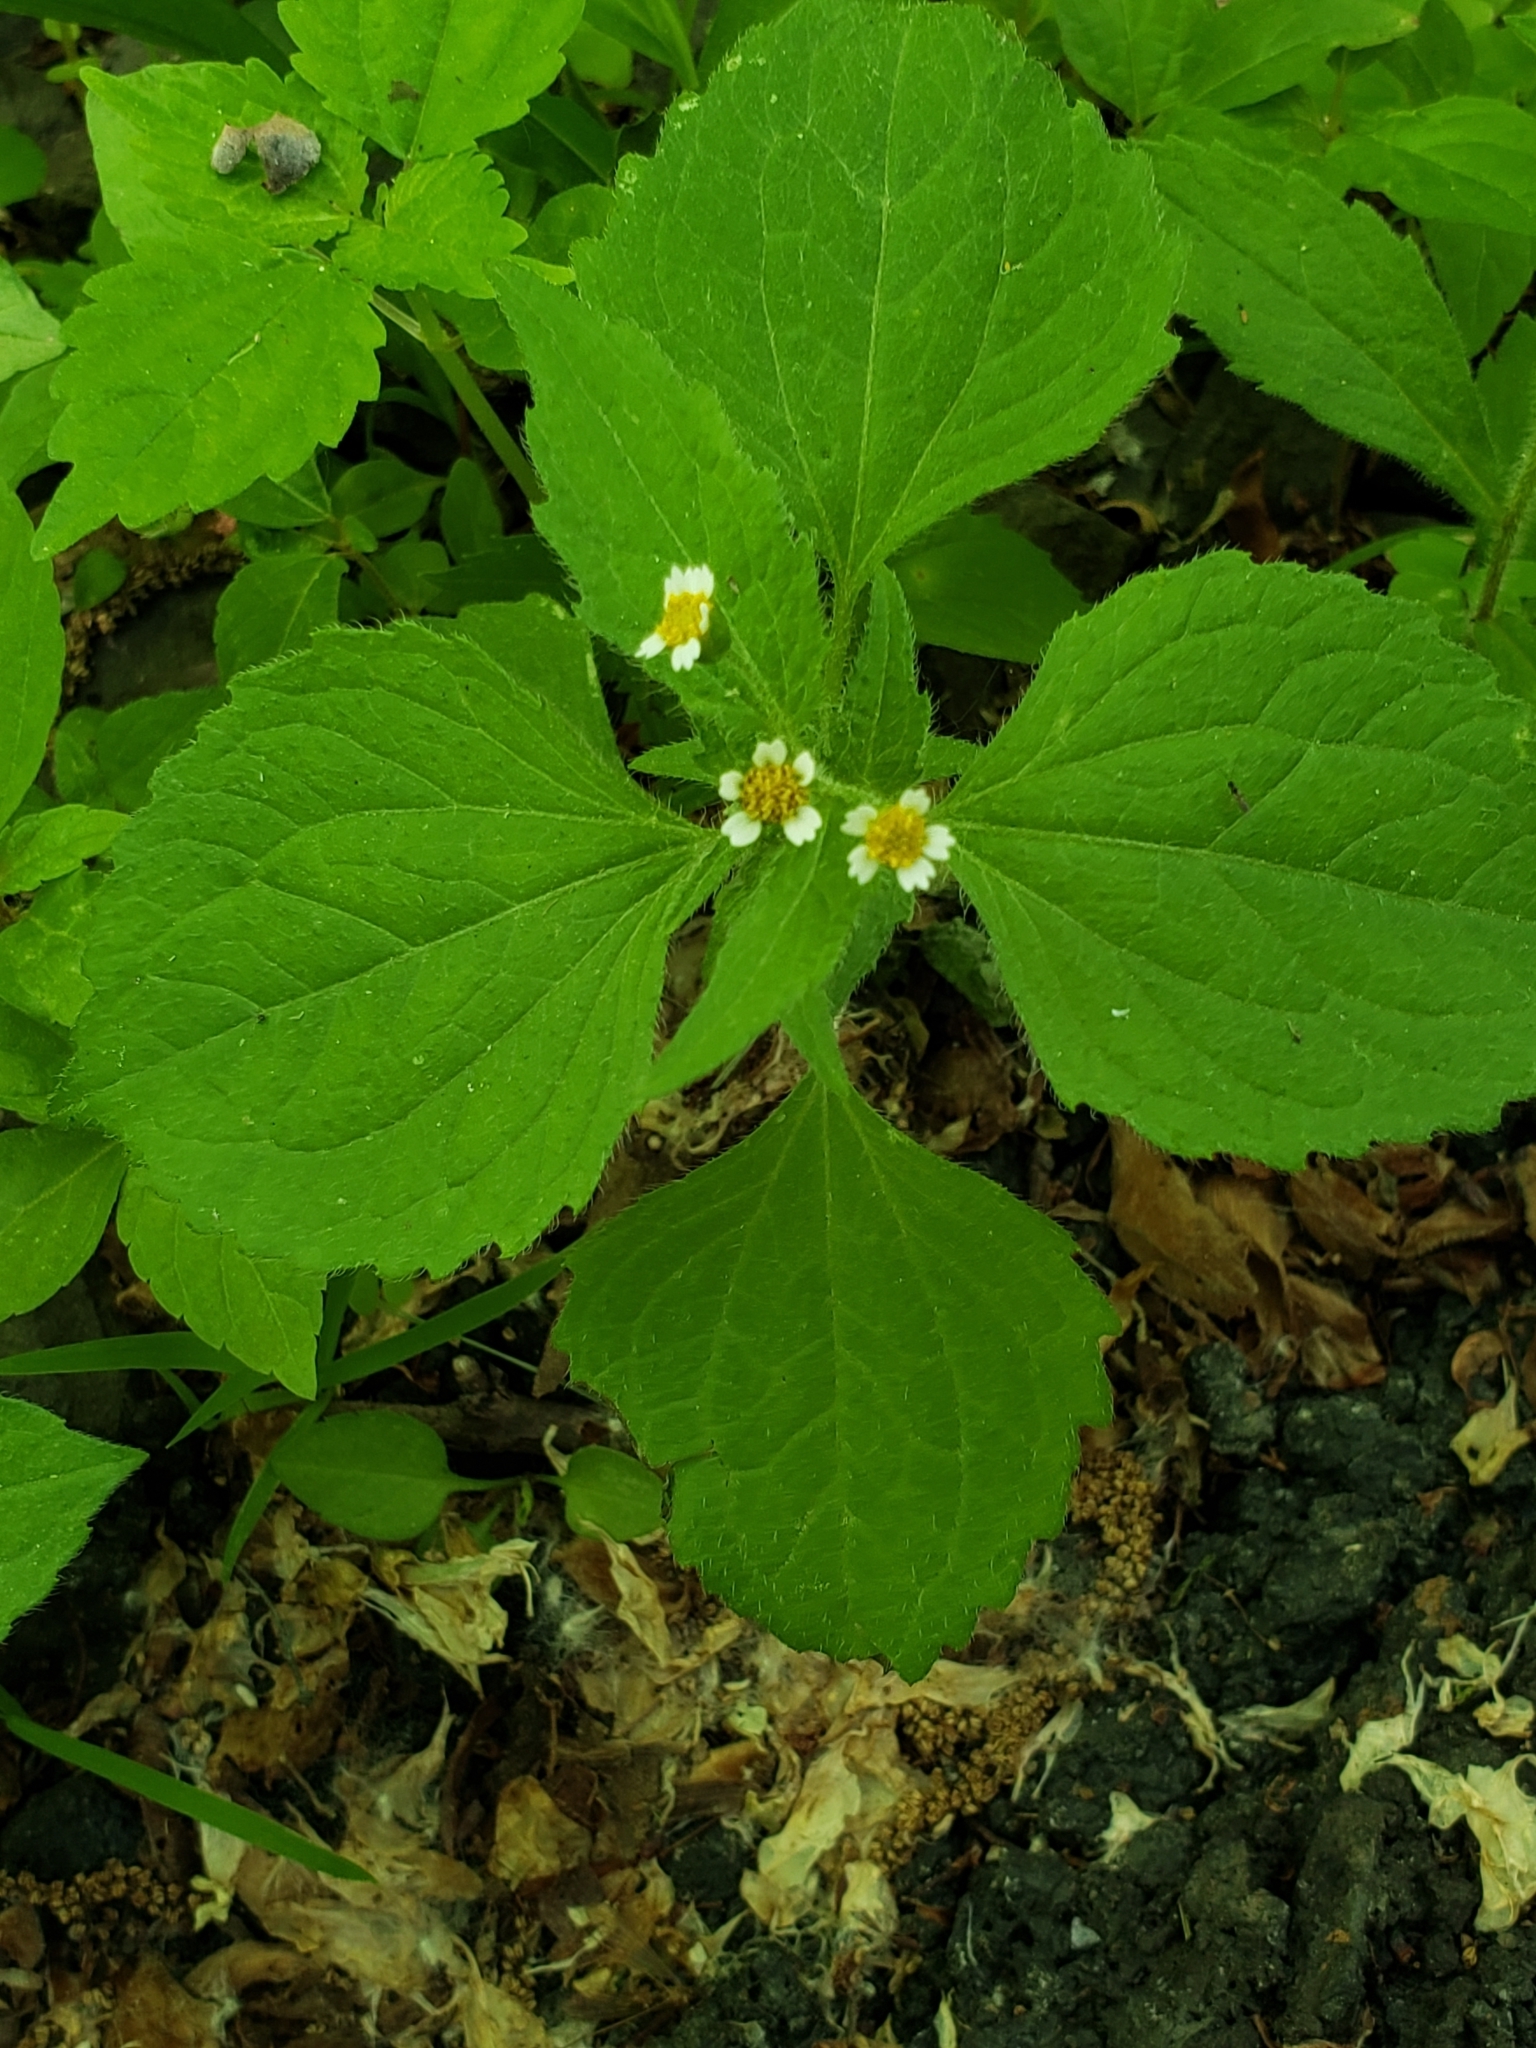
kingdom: Plantae
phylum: Tracheophyta
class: Magnoliopsida
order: Asterales
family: Asteraceae
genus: Galinsoga
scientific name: Galinsoga quadriradiata
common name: Shaggy soldier
